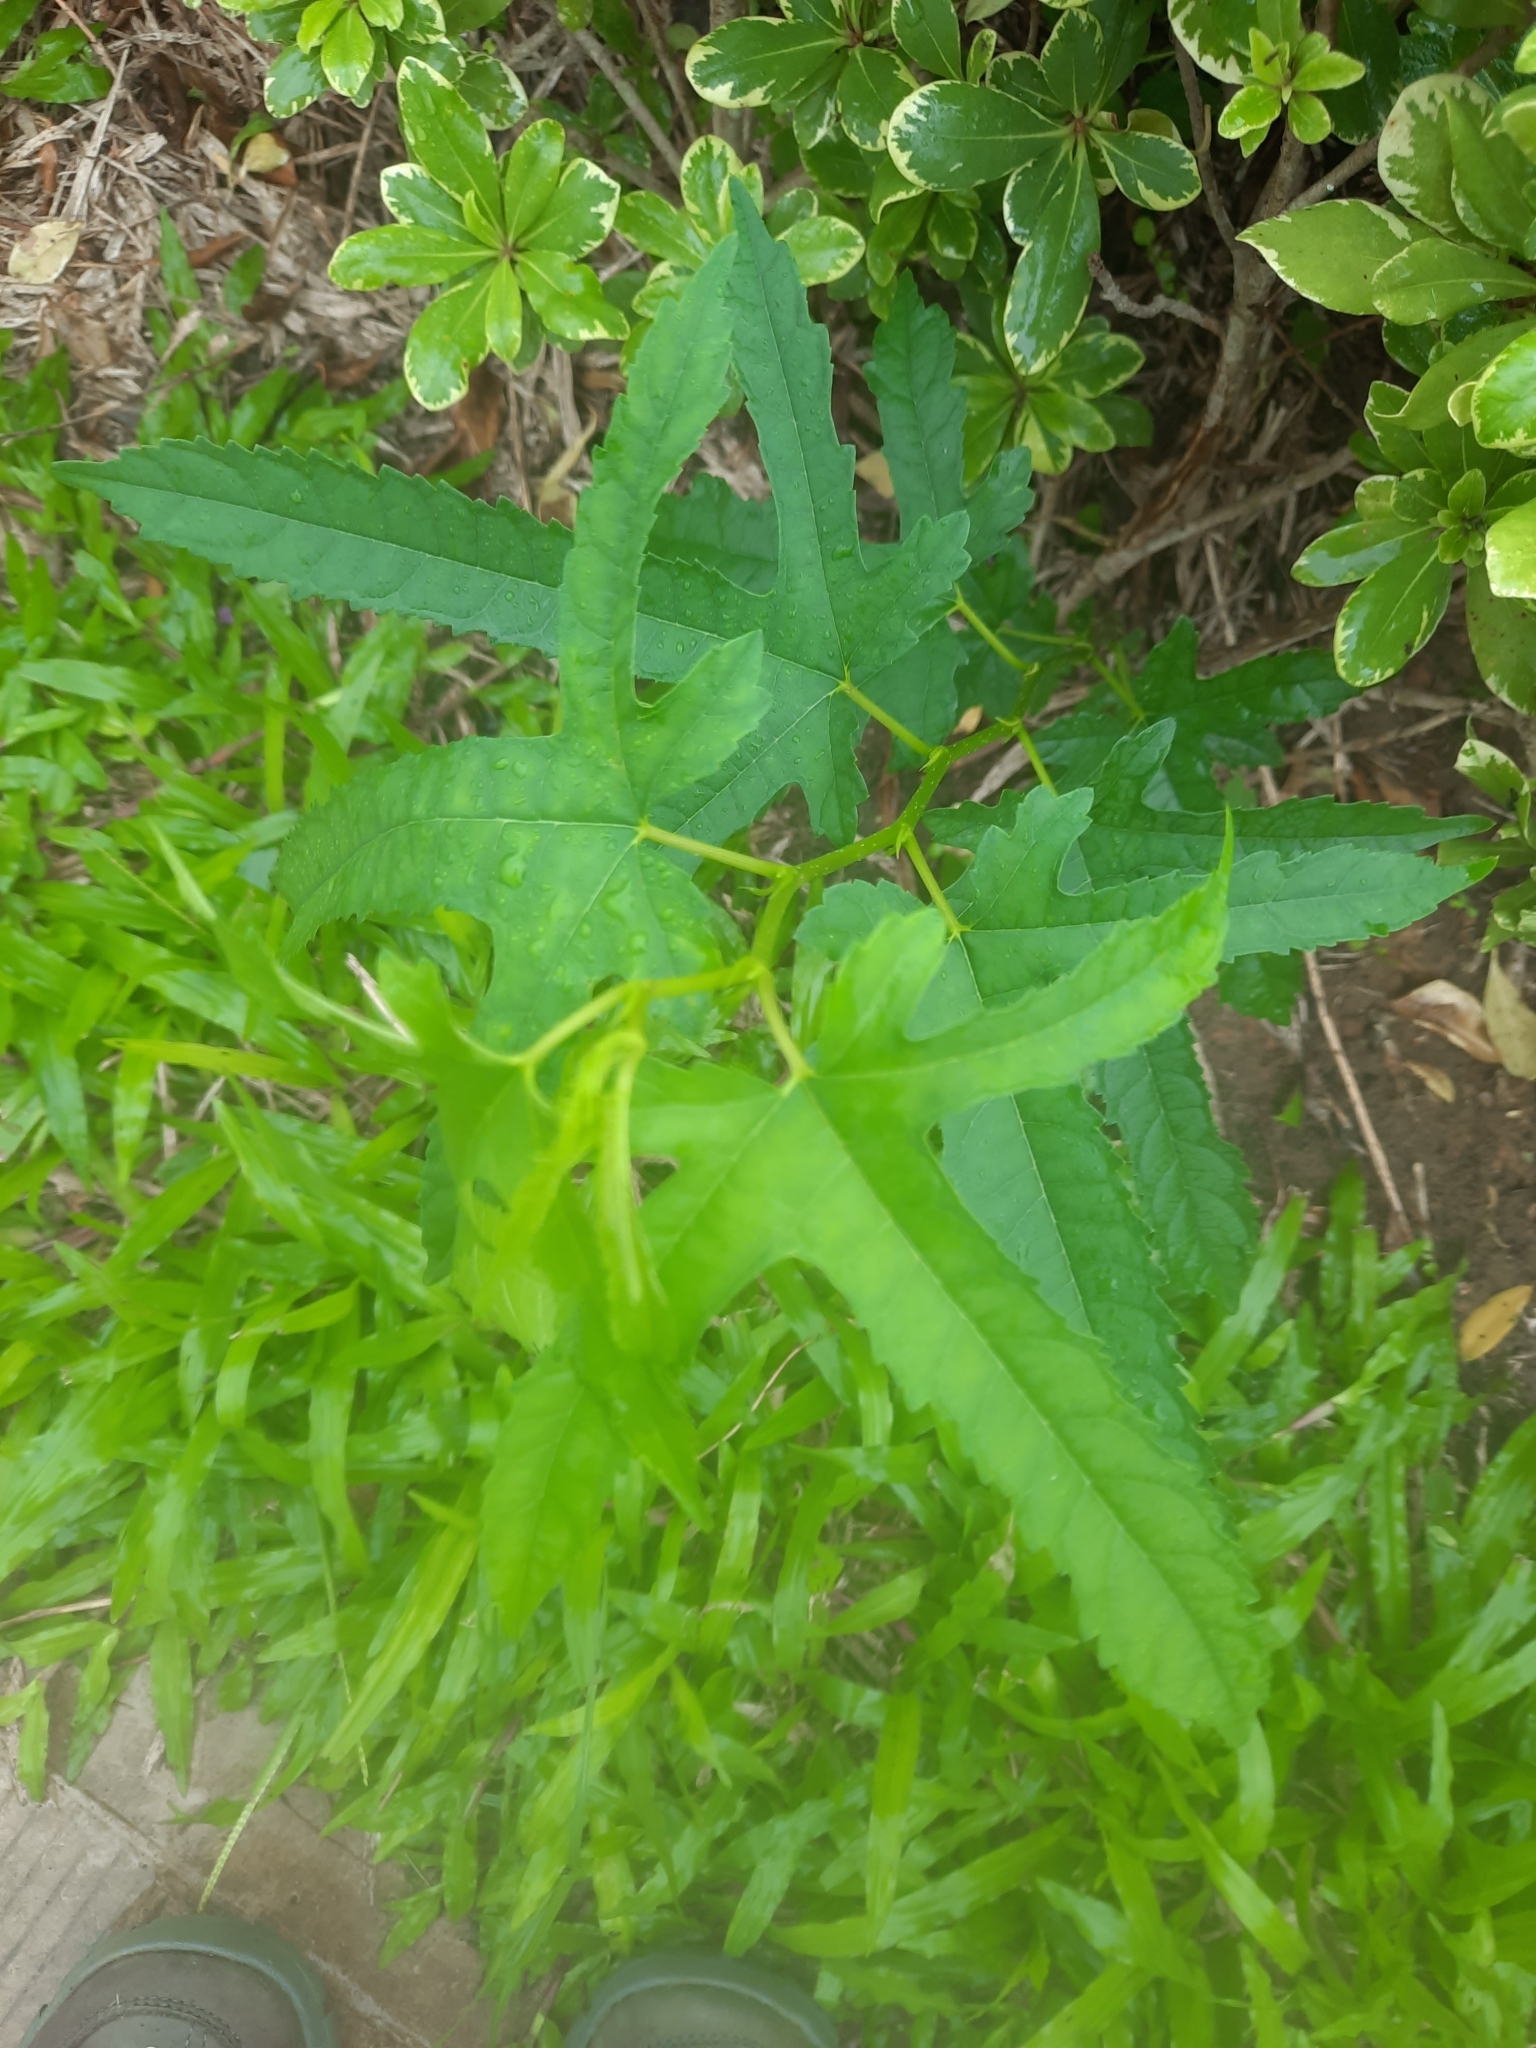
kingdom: Plantae
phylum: Tracheophyta
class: Magnoliopsida
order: Rosales
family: Moraceae
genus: Morus
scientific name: Morus indica
